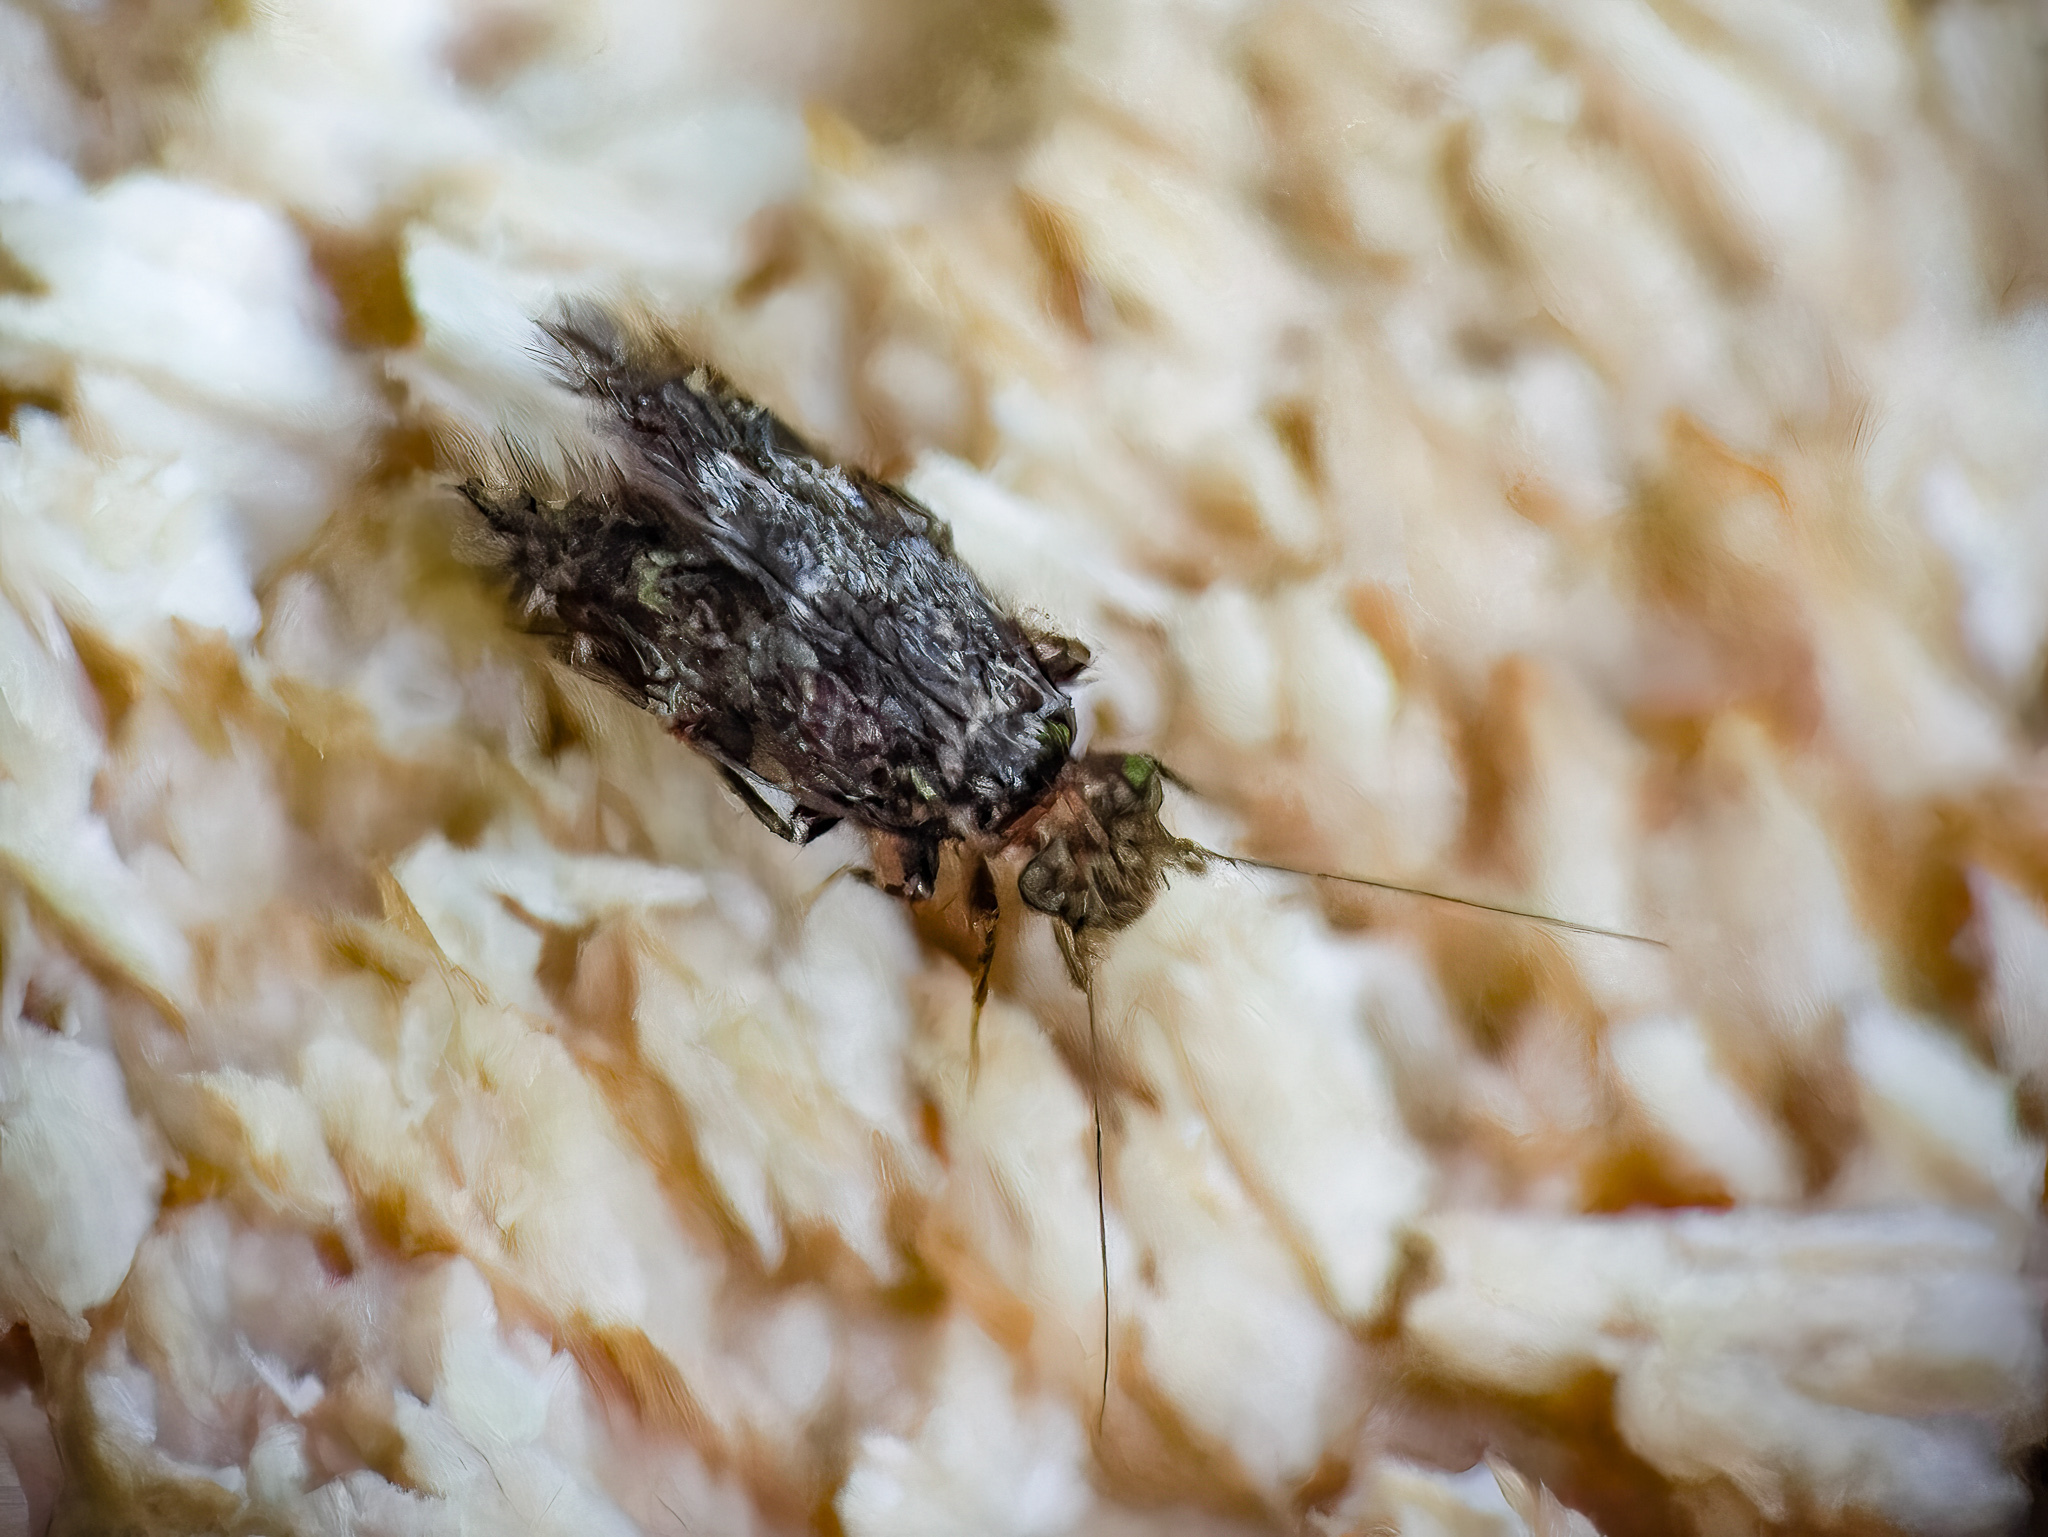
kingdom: Animalia
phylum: Arthropoda
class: Insecta
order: Psocodea
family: Lepidopsocidae
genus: Echmepteryx
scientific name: Echmepteryx hageni
